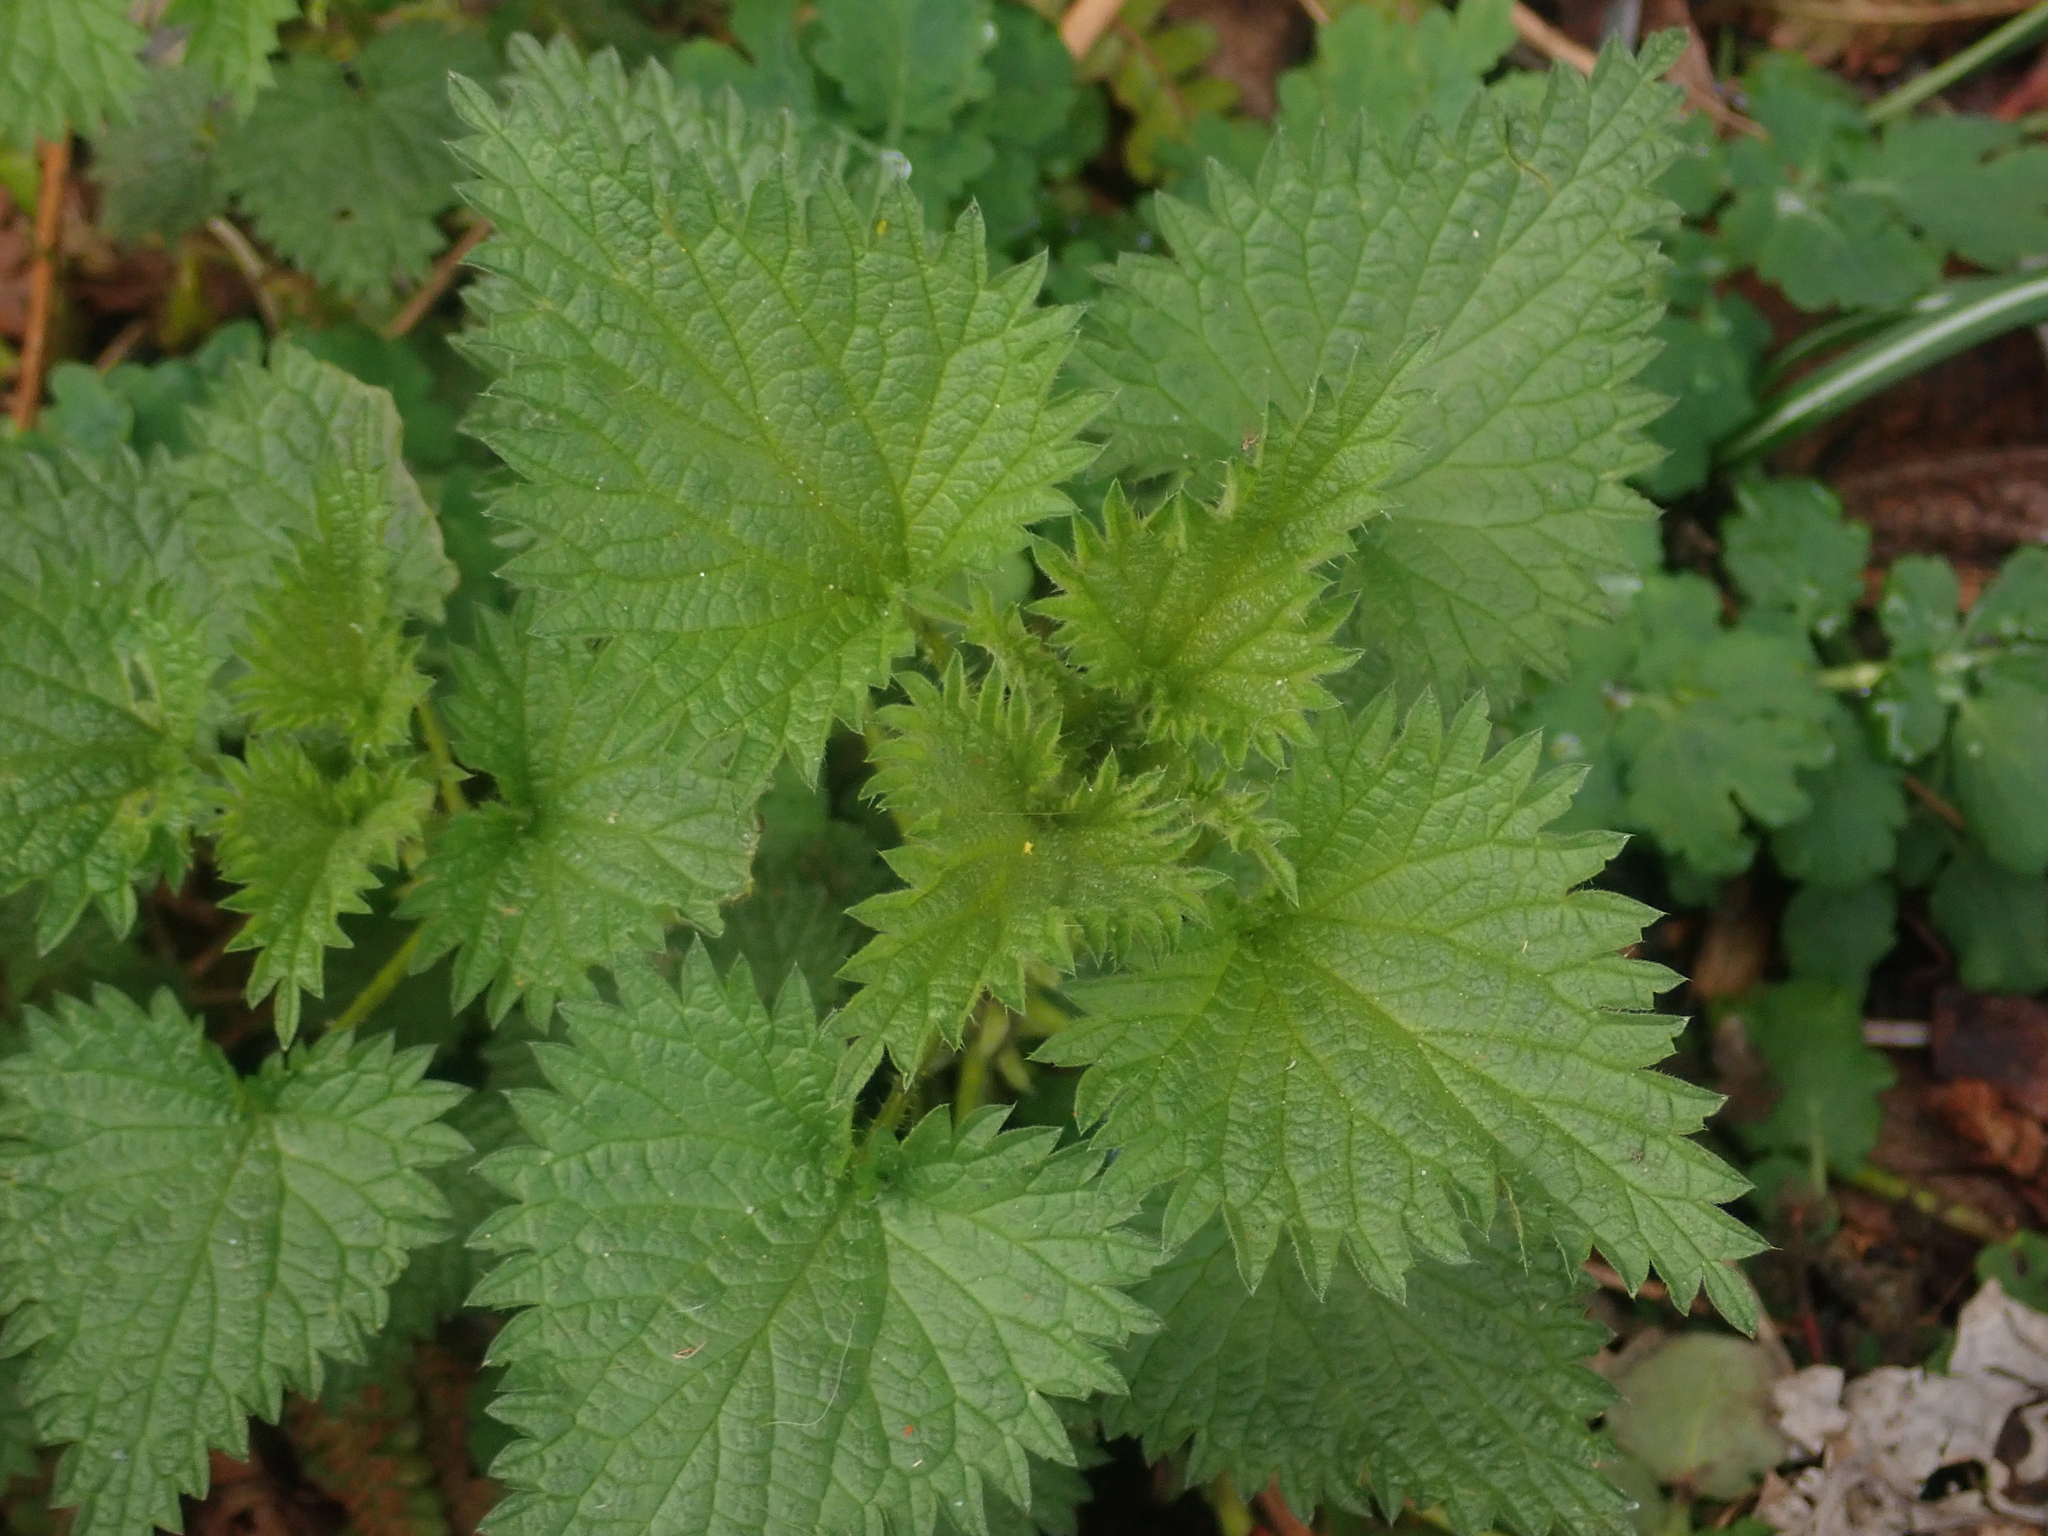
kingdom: Plantae
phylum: Tracheophyta
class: Magnoliopsida
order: Rosales
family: Urticaceae
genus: Urtica
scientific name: Urtica dioica
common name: Common nettle
